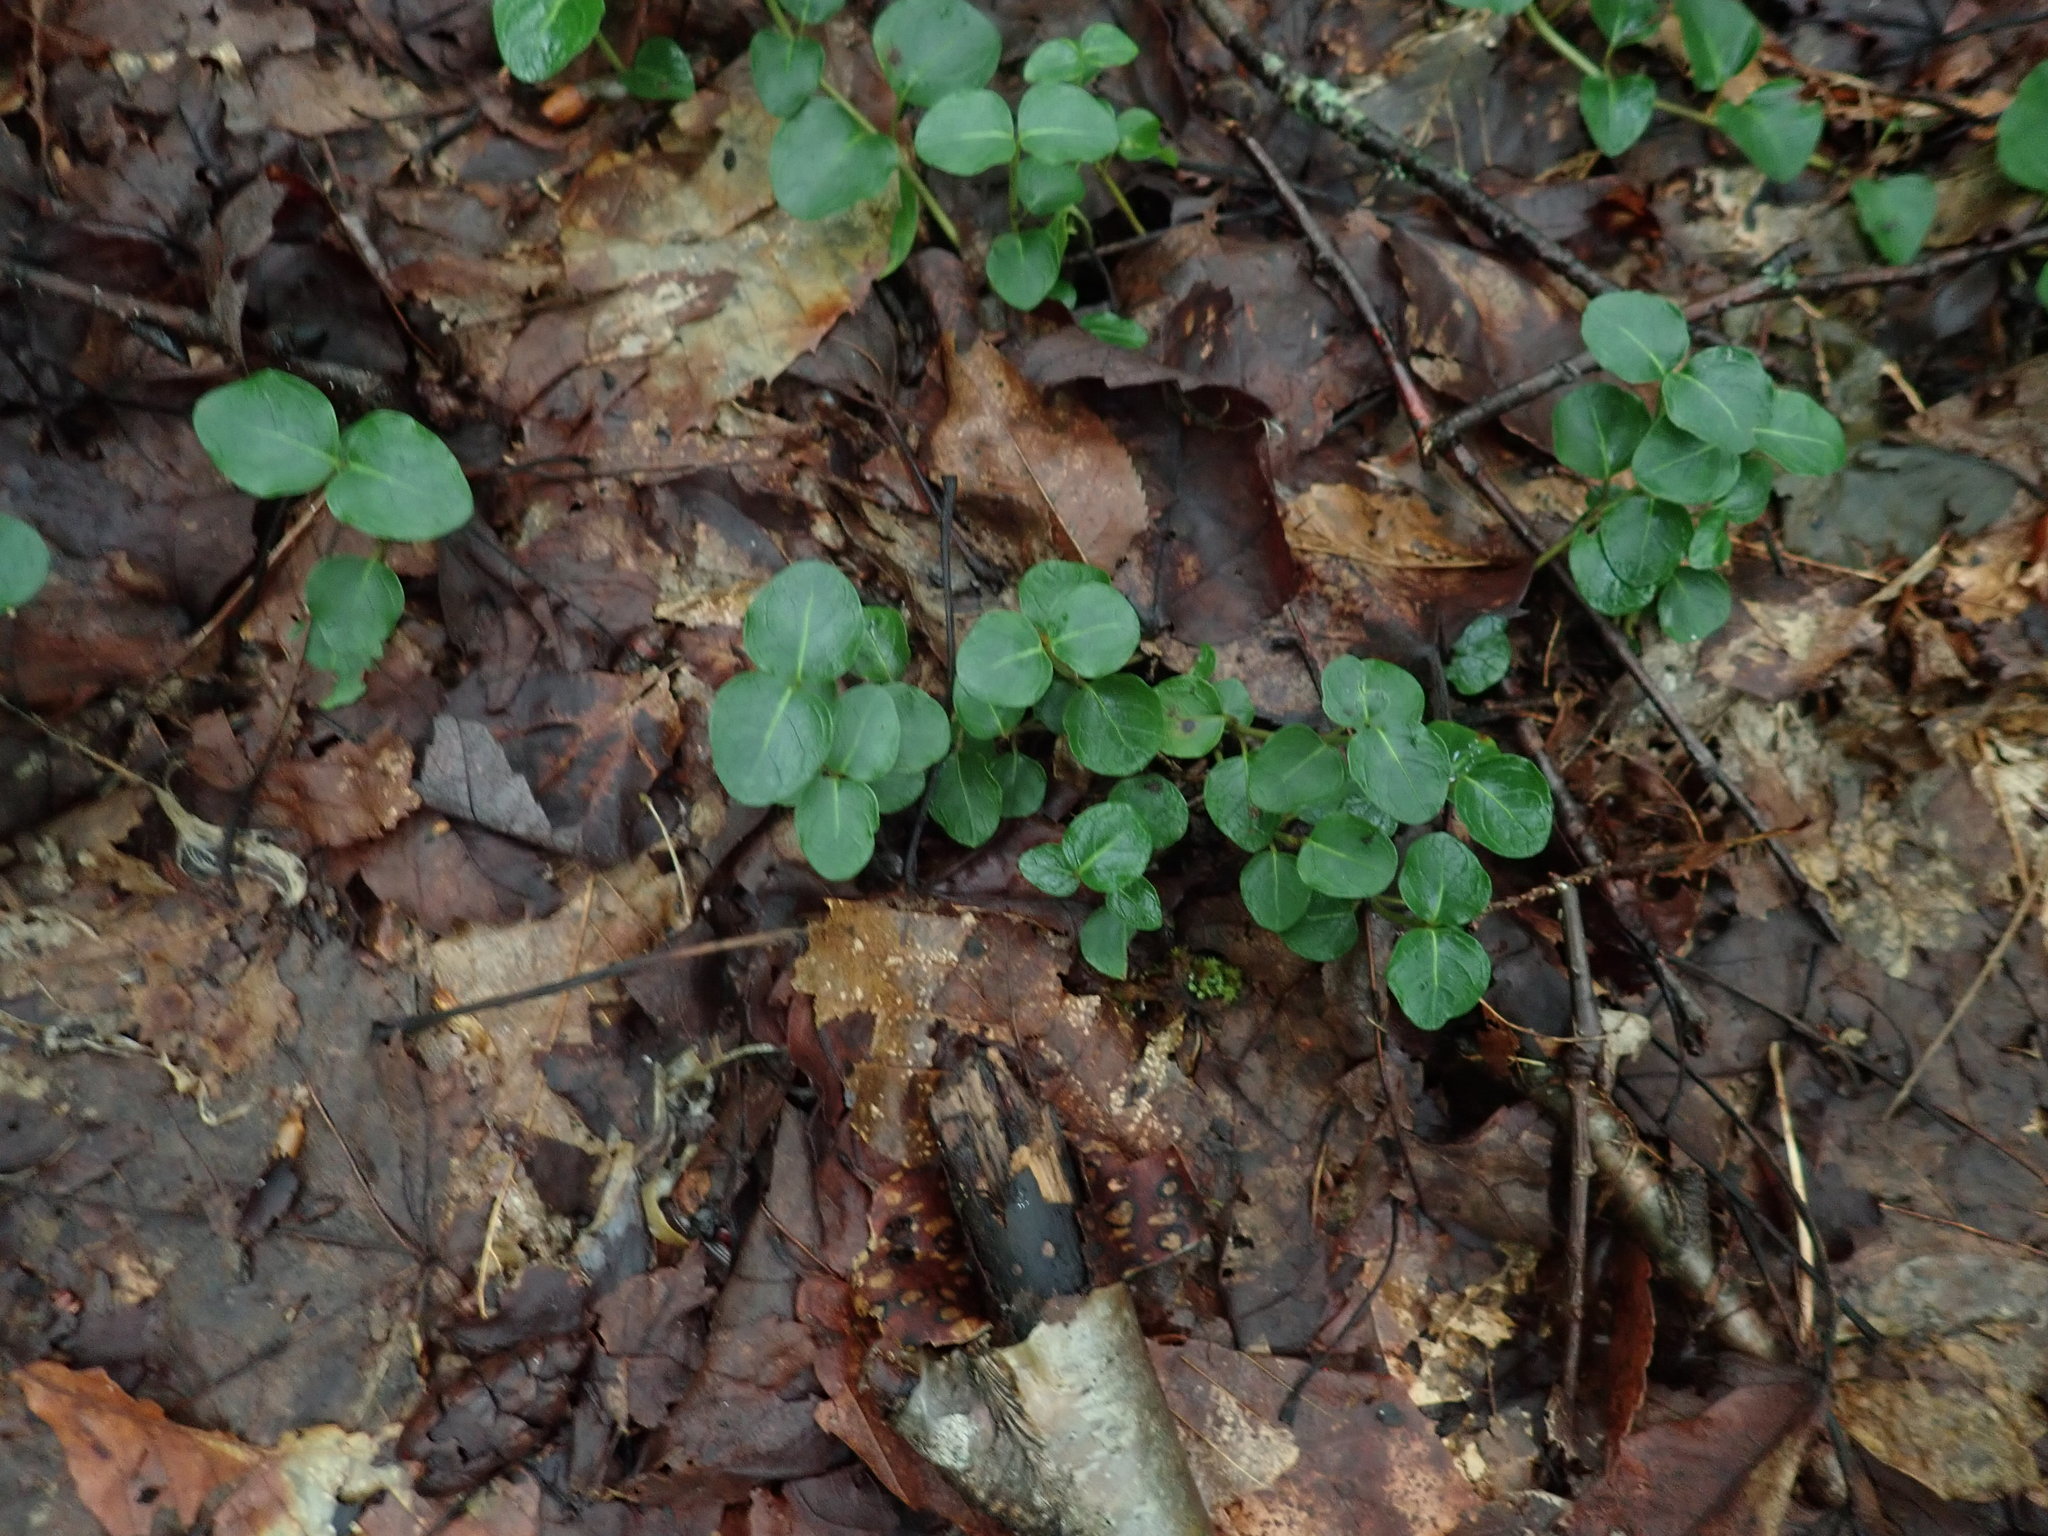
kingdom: Plantae
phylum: Tracheophyta
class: Magnoliopsida
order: Gentianales
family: Rubiaceae
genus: Mitchella
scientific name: Mitchella repens
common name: Partridge-berry
